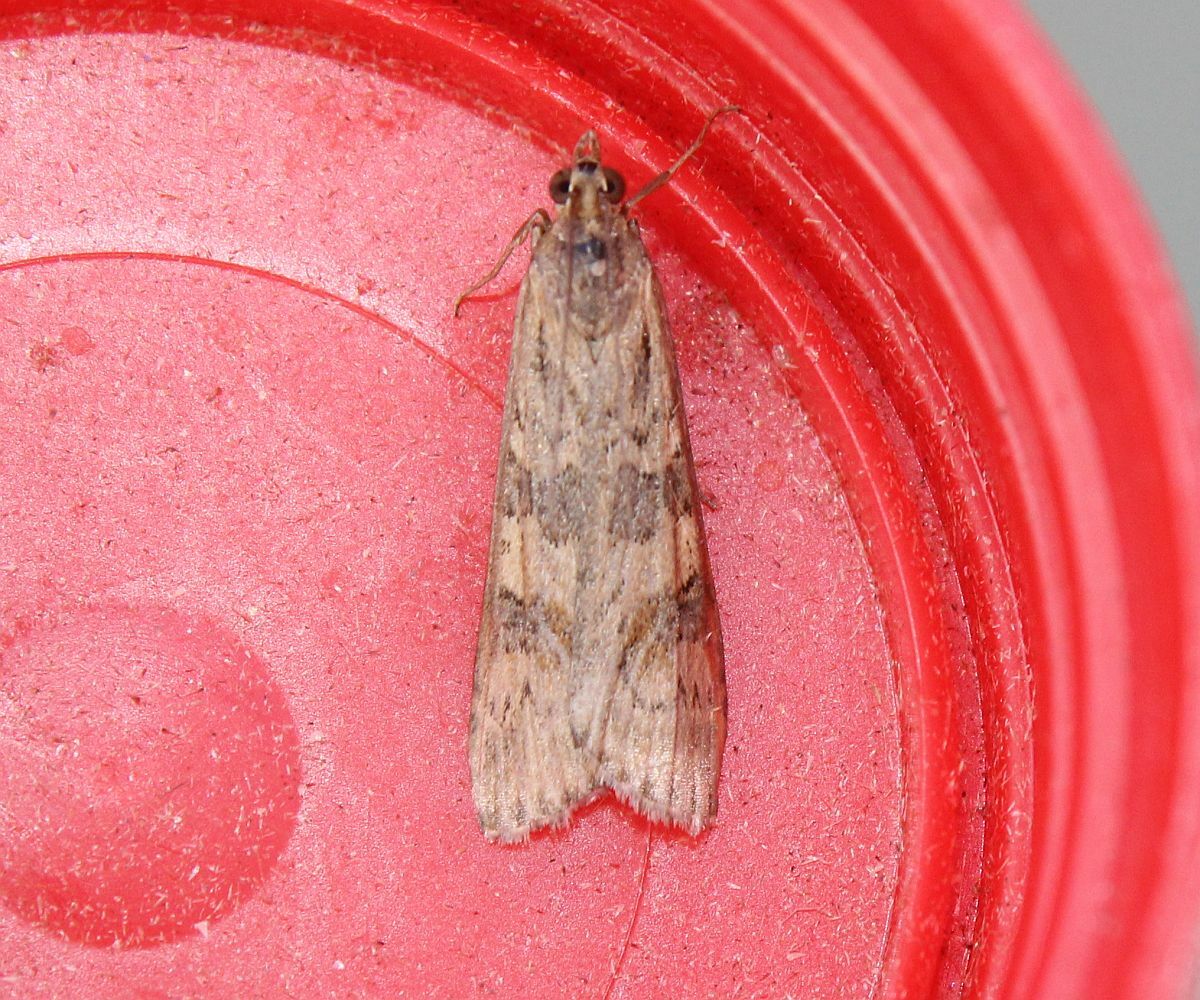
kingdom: Animalia
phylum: Arthropoda
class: Insecta
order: Lepidoptera
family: Crambidae
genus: Nomophila
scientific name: Nomophila noctuella
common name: Rush veneer
